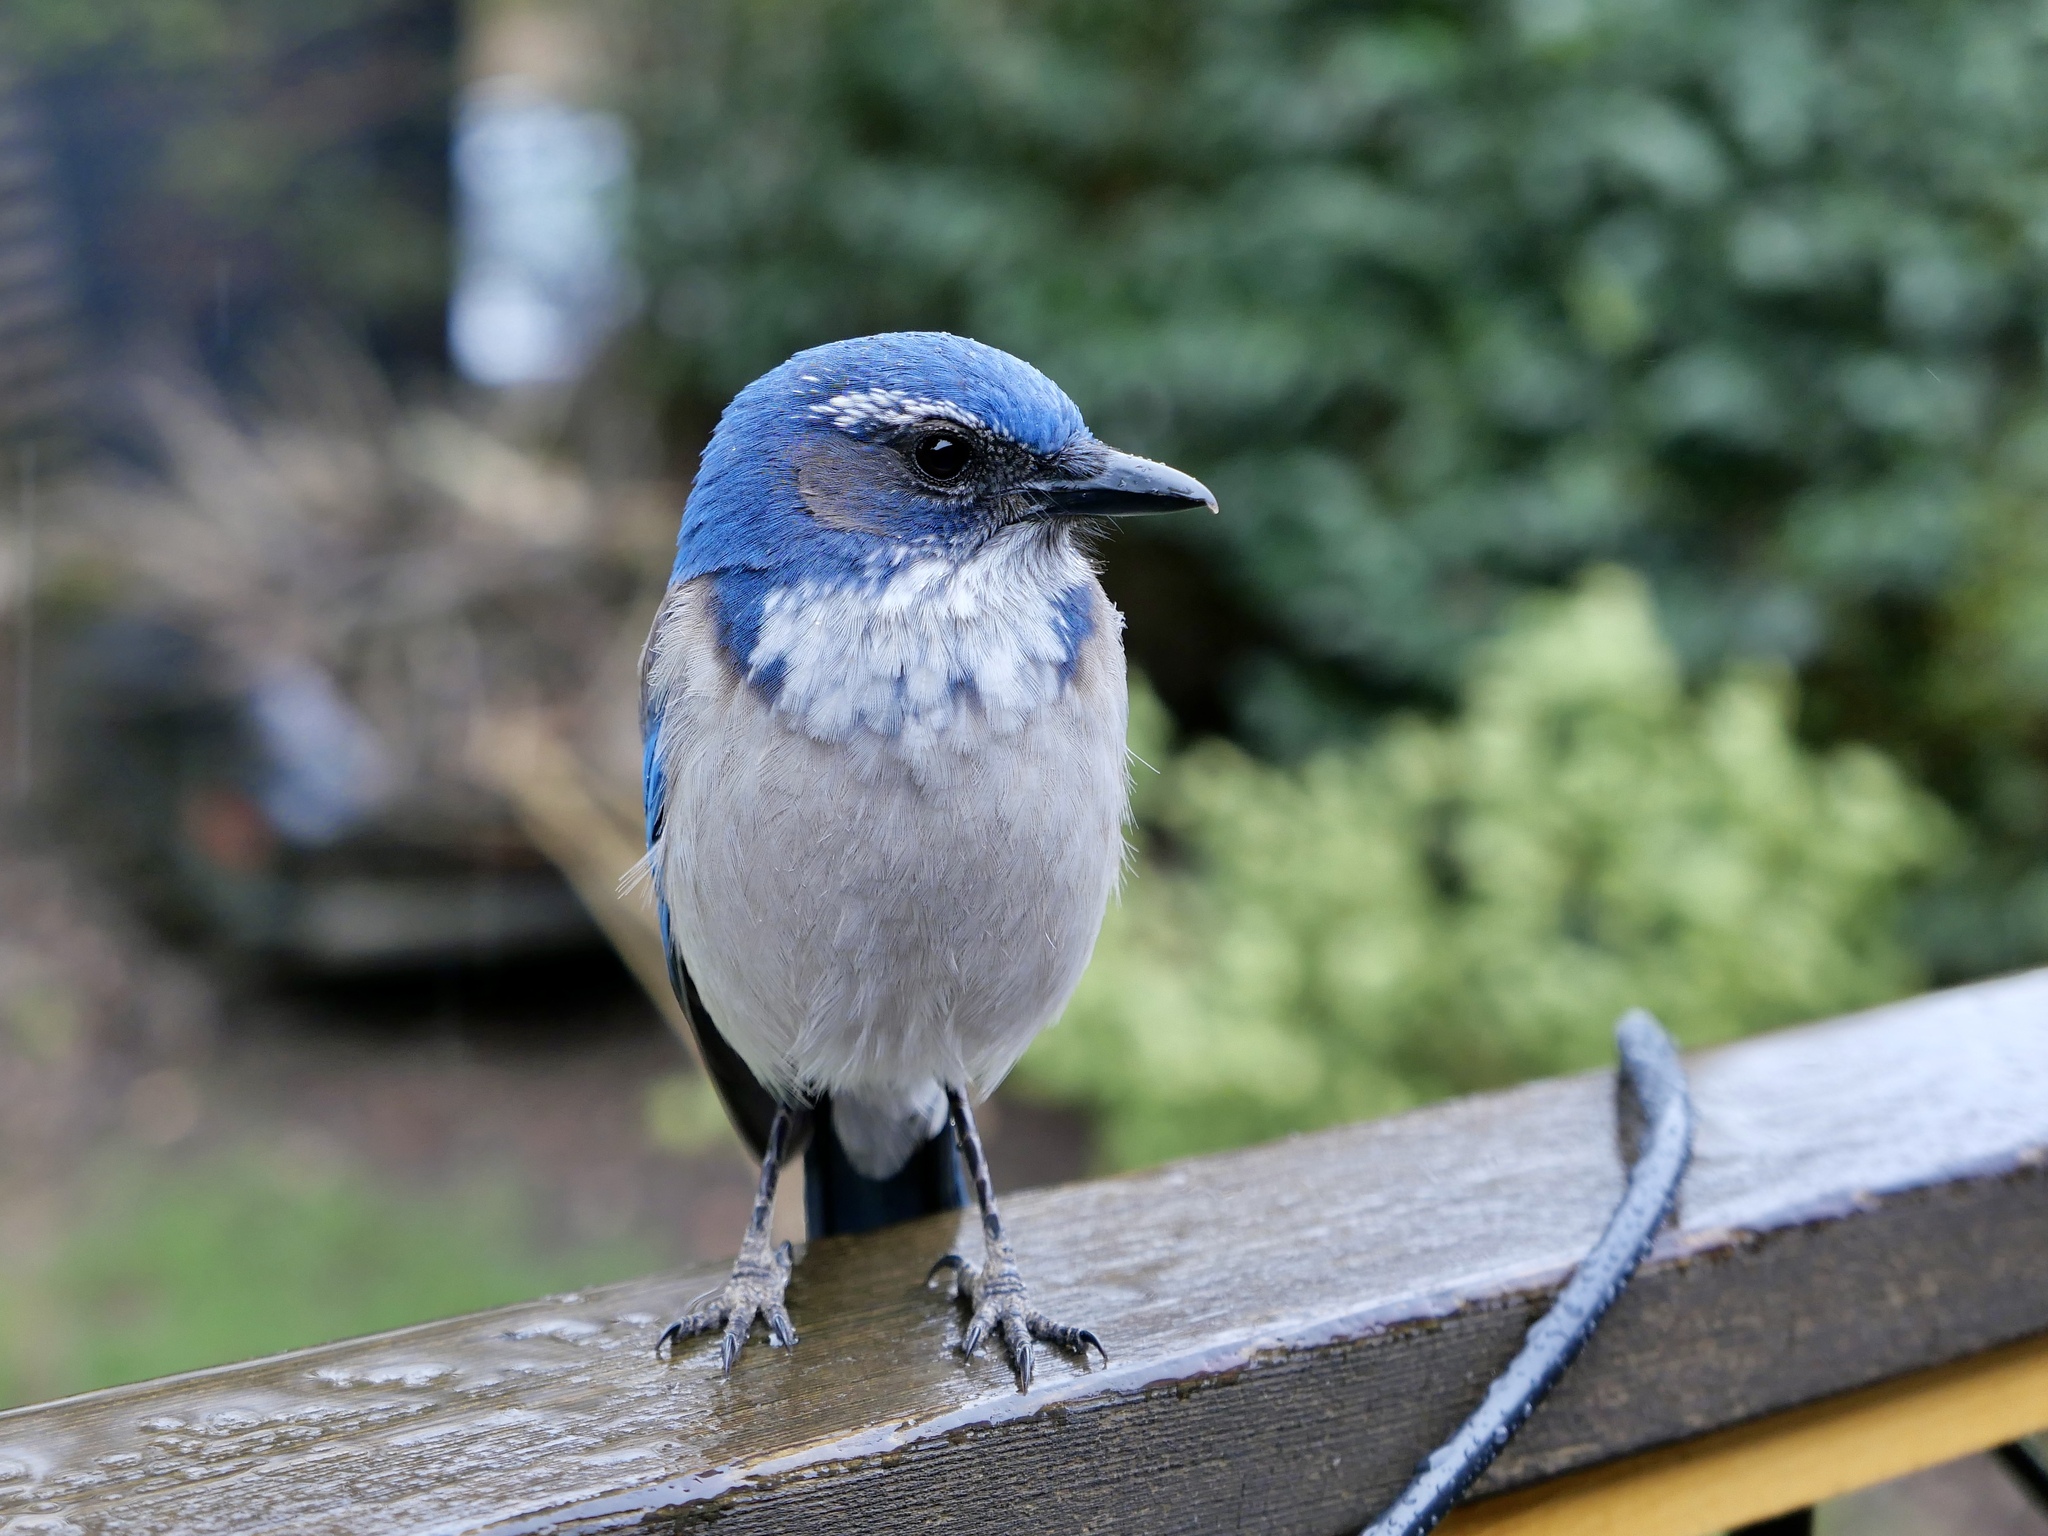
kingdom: Animalia
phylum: Chordata
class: Aves
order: Passeriformes
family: Corvidae
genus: Aphelocoma
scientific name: Aphelocoma californica
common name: California scrub-jay
